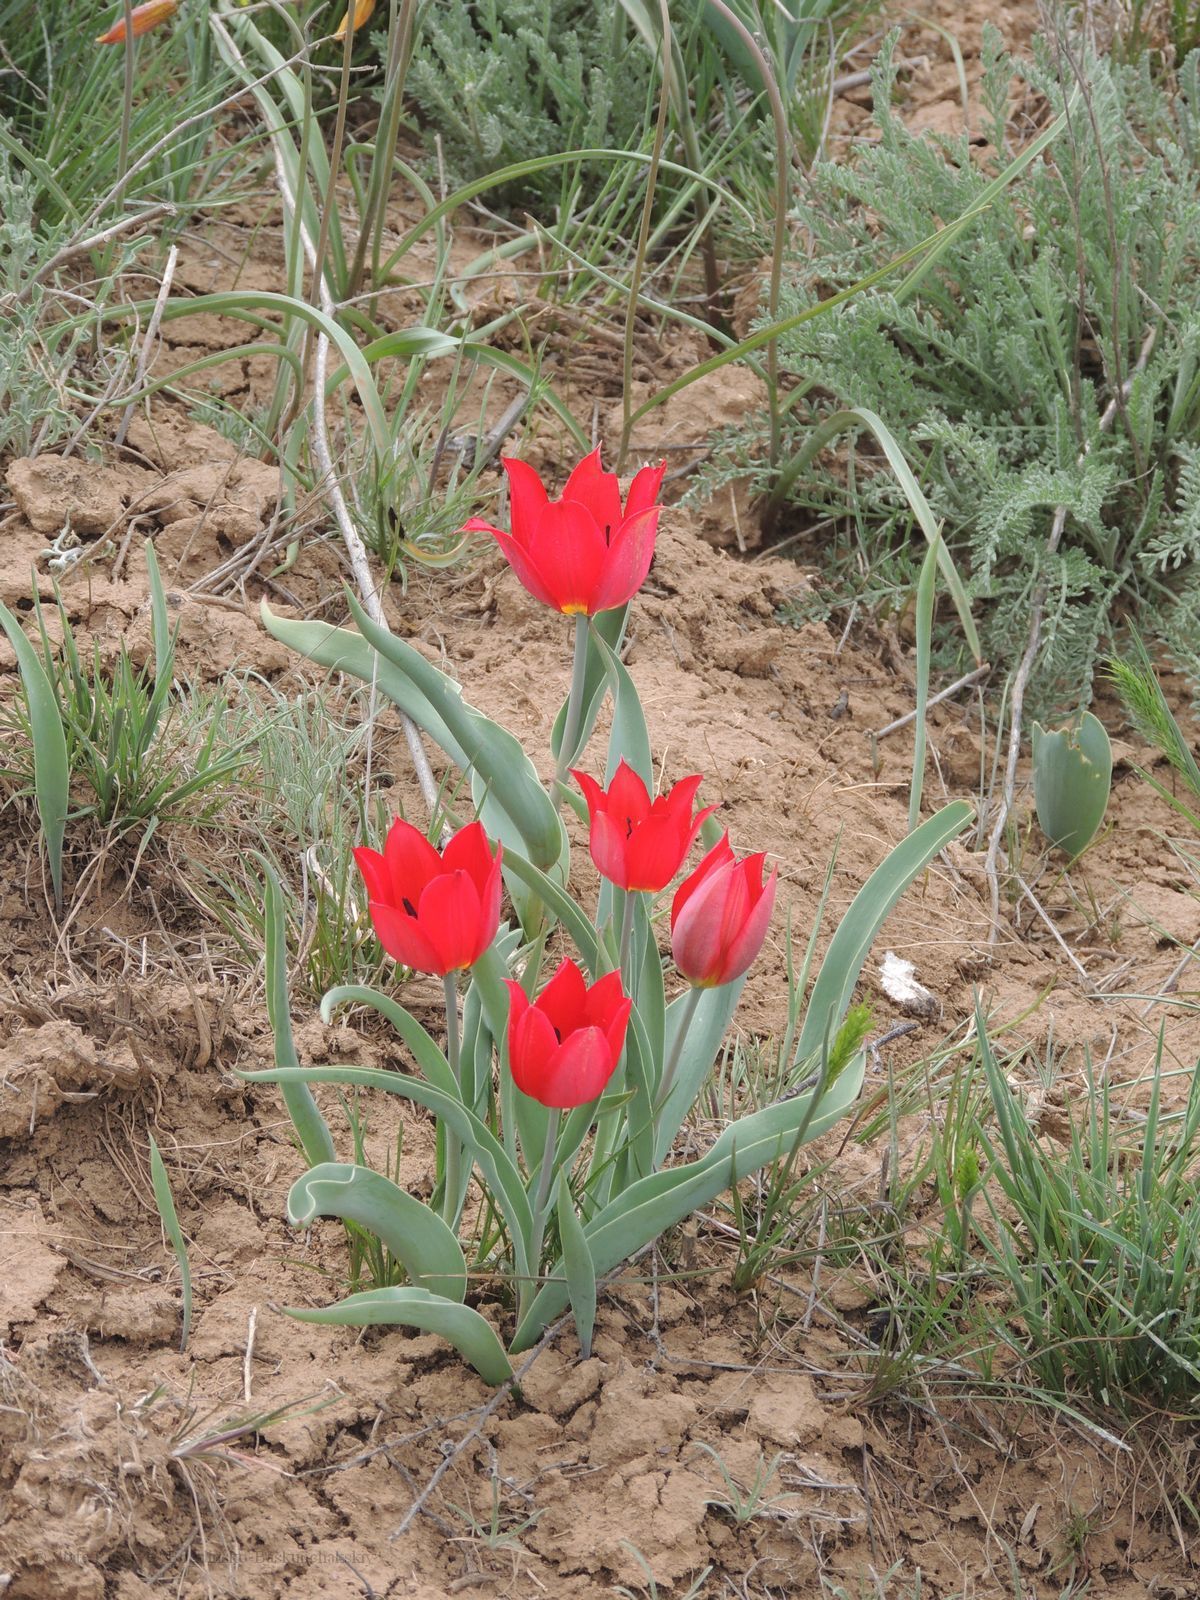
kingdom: Plantae
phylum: Tracheophyta
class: Liliopsida
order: Liliales
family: Liliaceae
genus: Tulipa
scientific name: Tulipa suaveolens
